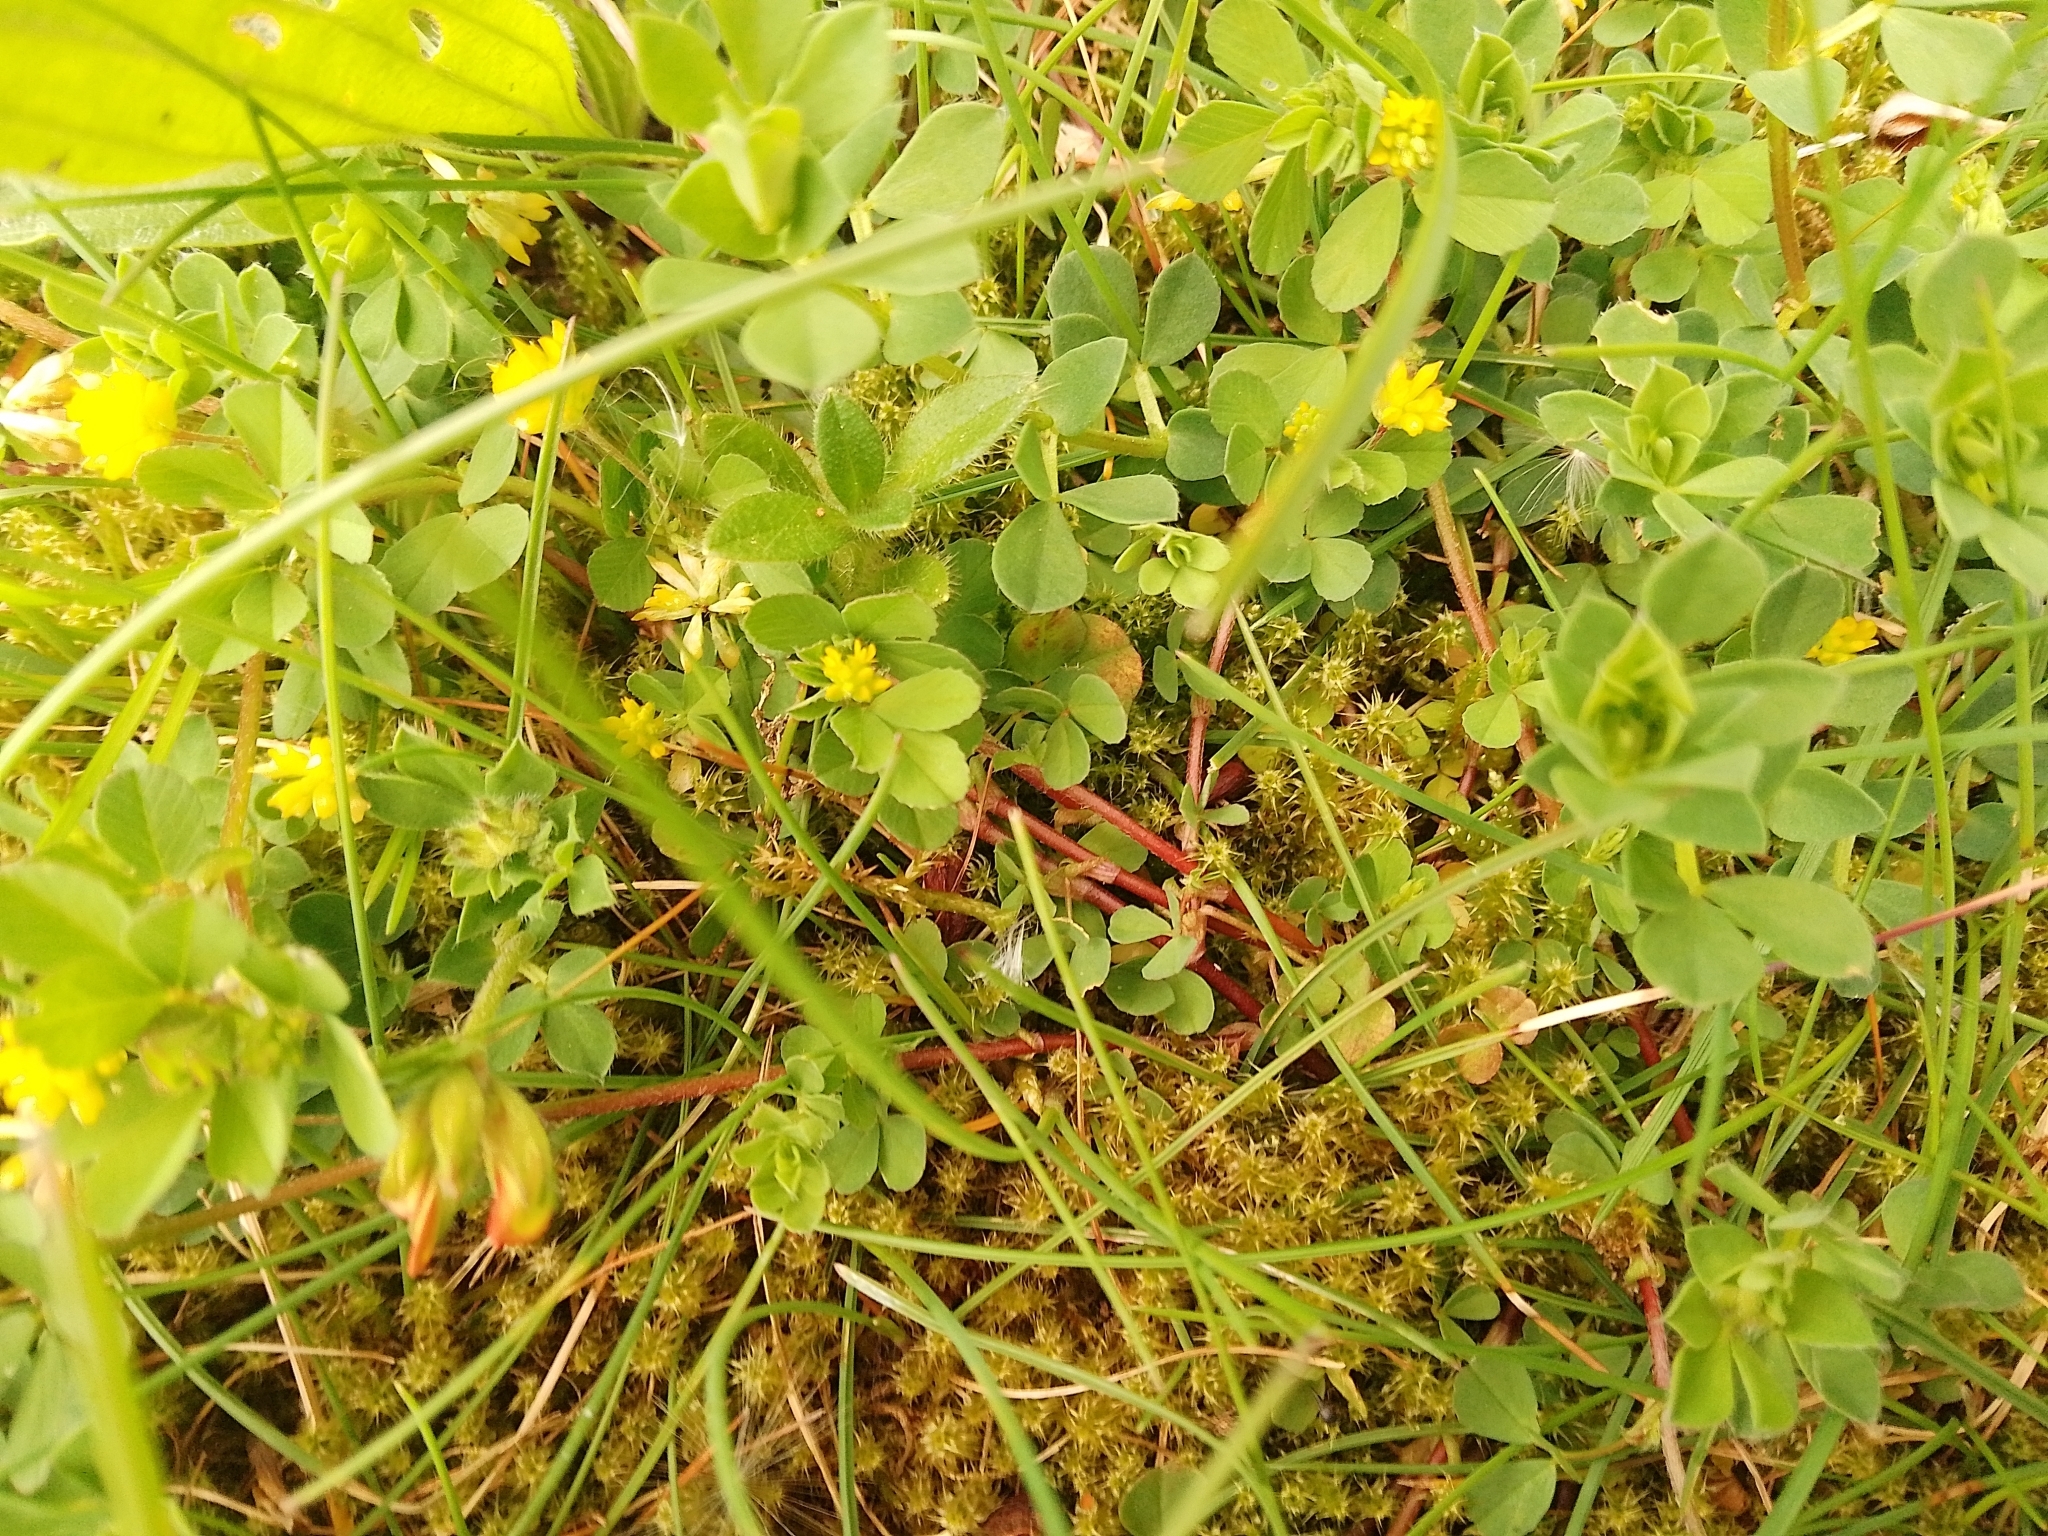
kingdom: Plantae
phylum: Tracheophyta
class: Magnoliopsida
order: Fabales
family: Fabaceae
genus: Trifolium
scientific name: Trifolium dubium
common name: Suckling clover
